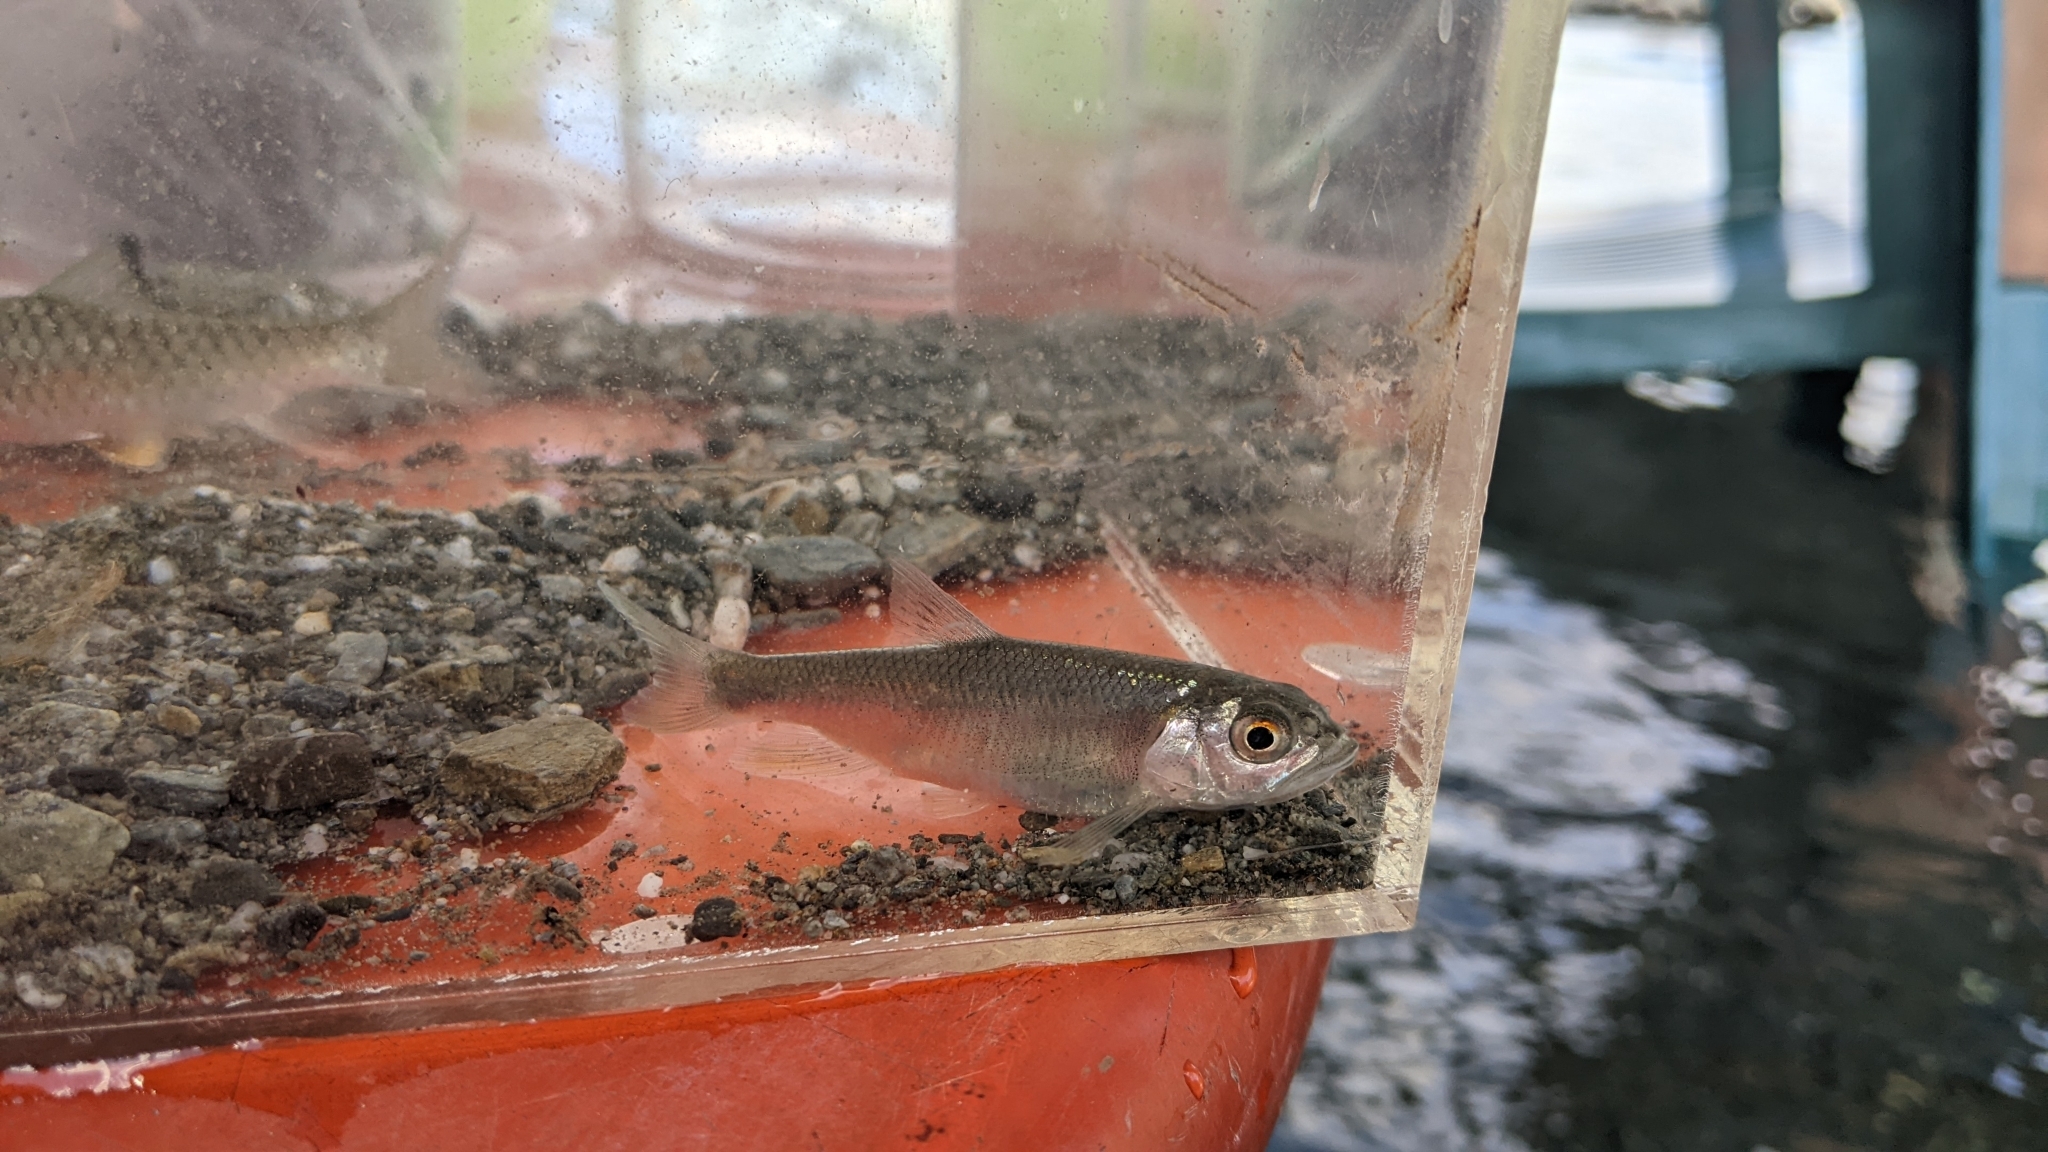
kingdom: Animalia
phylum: Chordata
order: Cypriniformes
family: Cyprinidae
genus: Opsariichthys
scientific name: Opsariichthys pachycephalus
